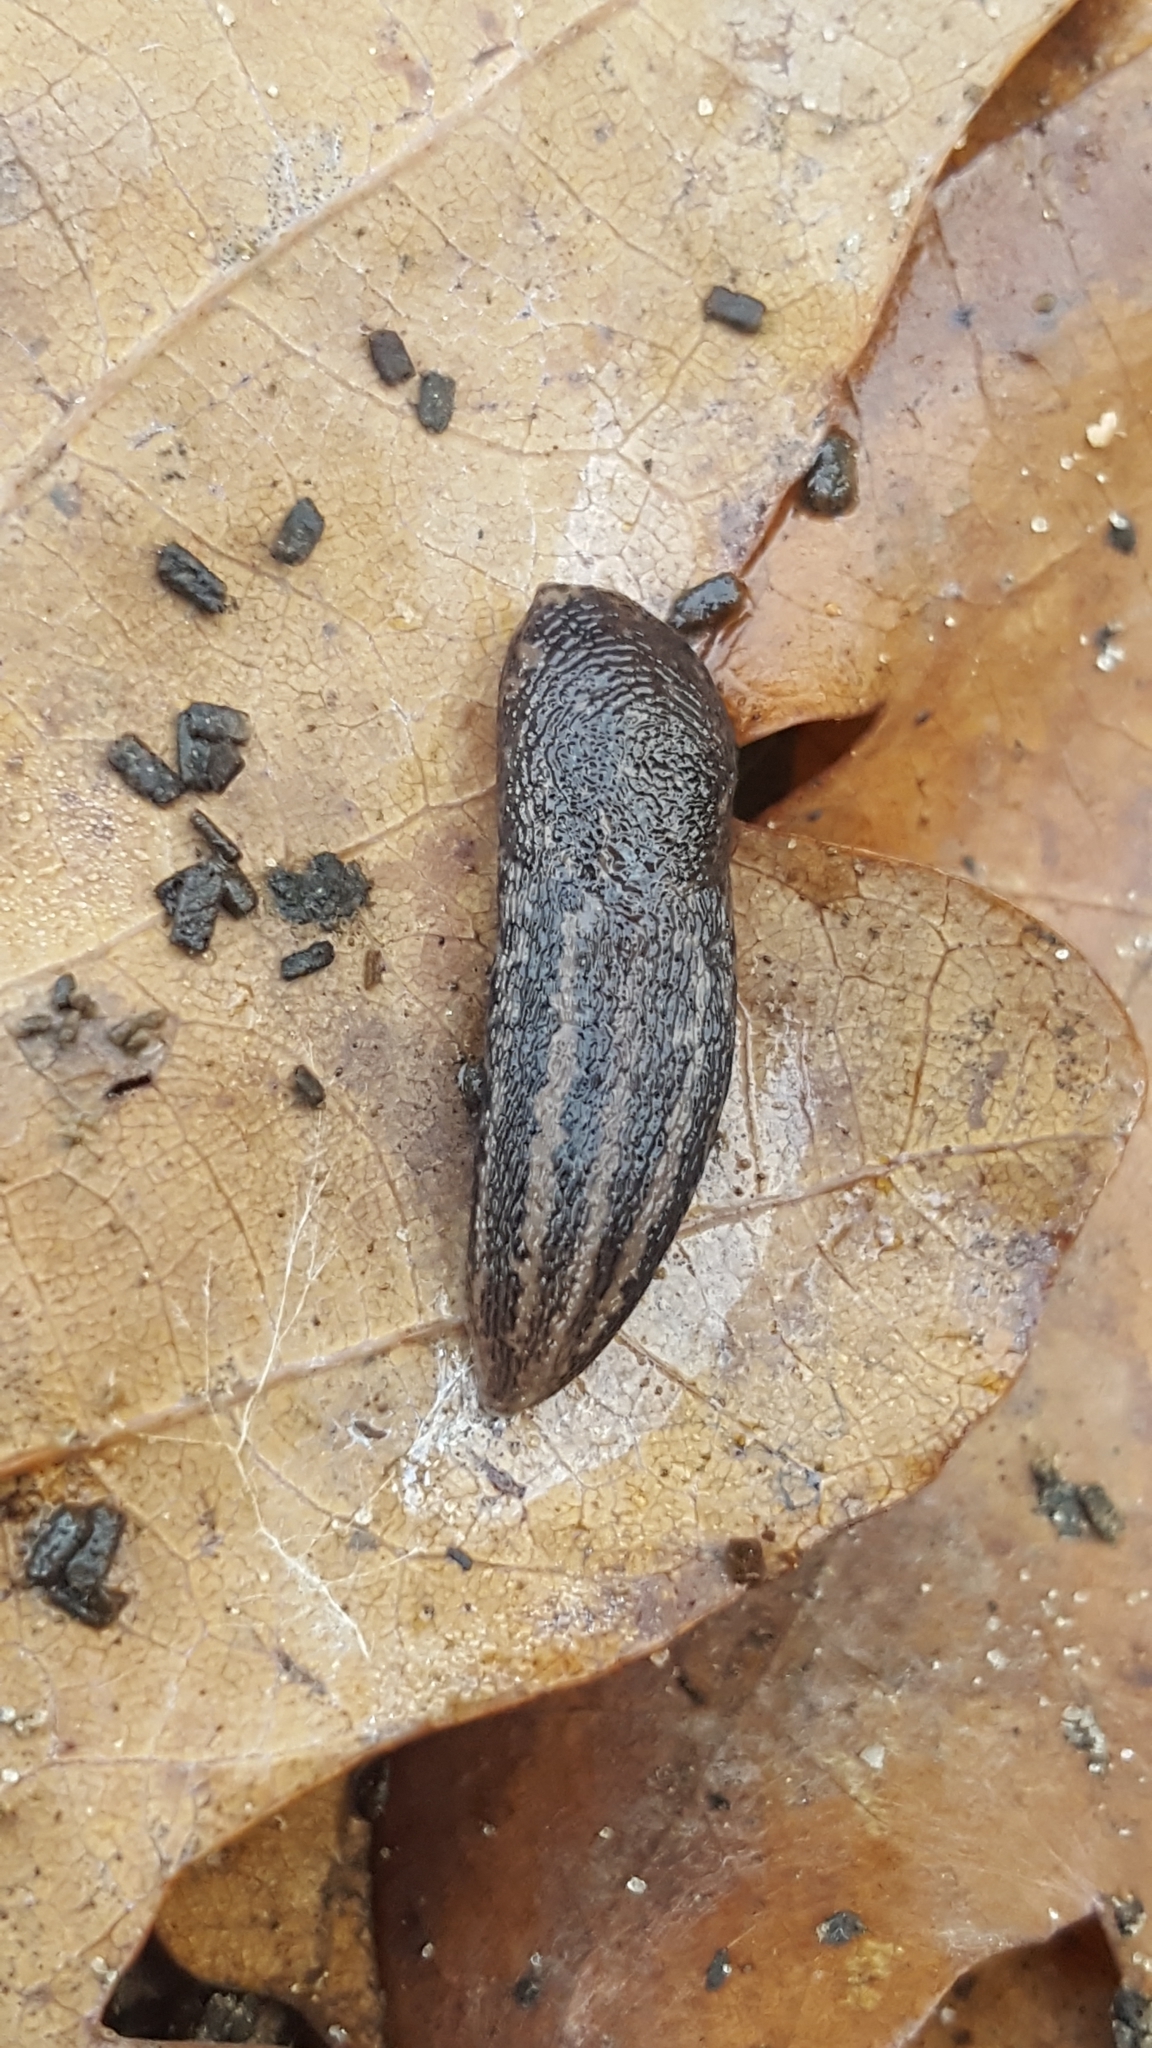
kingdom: Animalia
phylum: Mollusca
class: Gastropoda
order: Stylommatophora
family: Limacidae
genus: Limax
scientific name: Limax maximus
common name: Great grey slug
